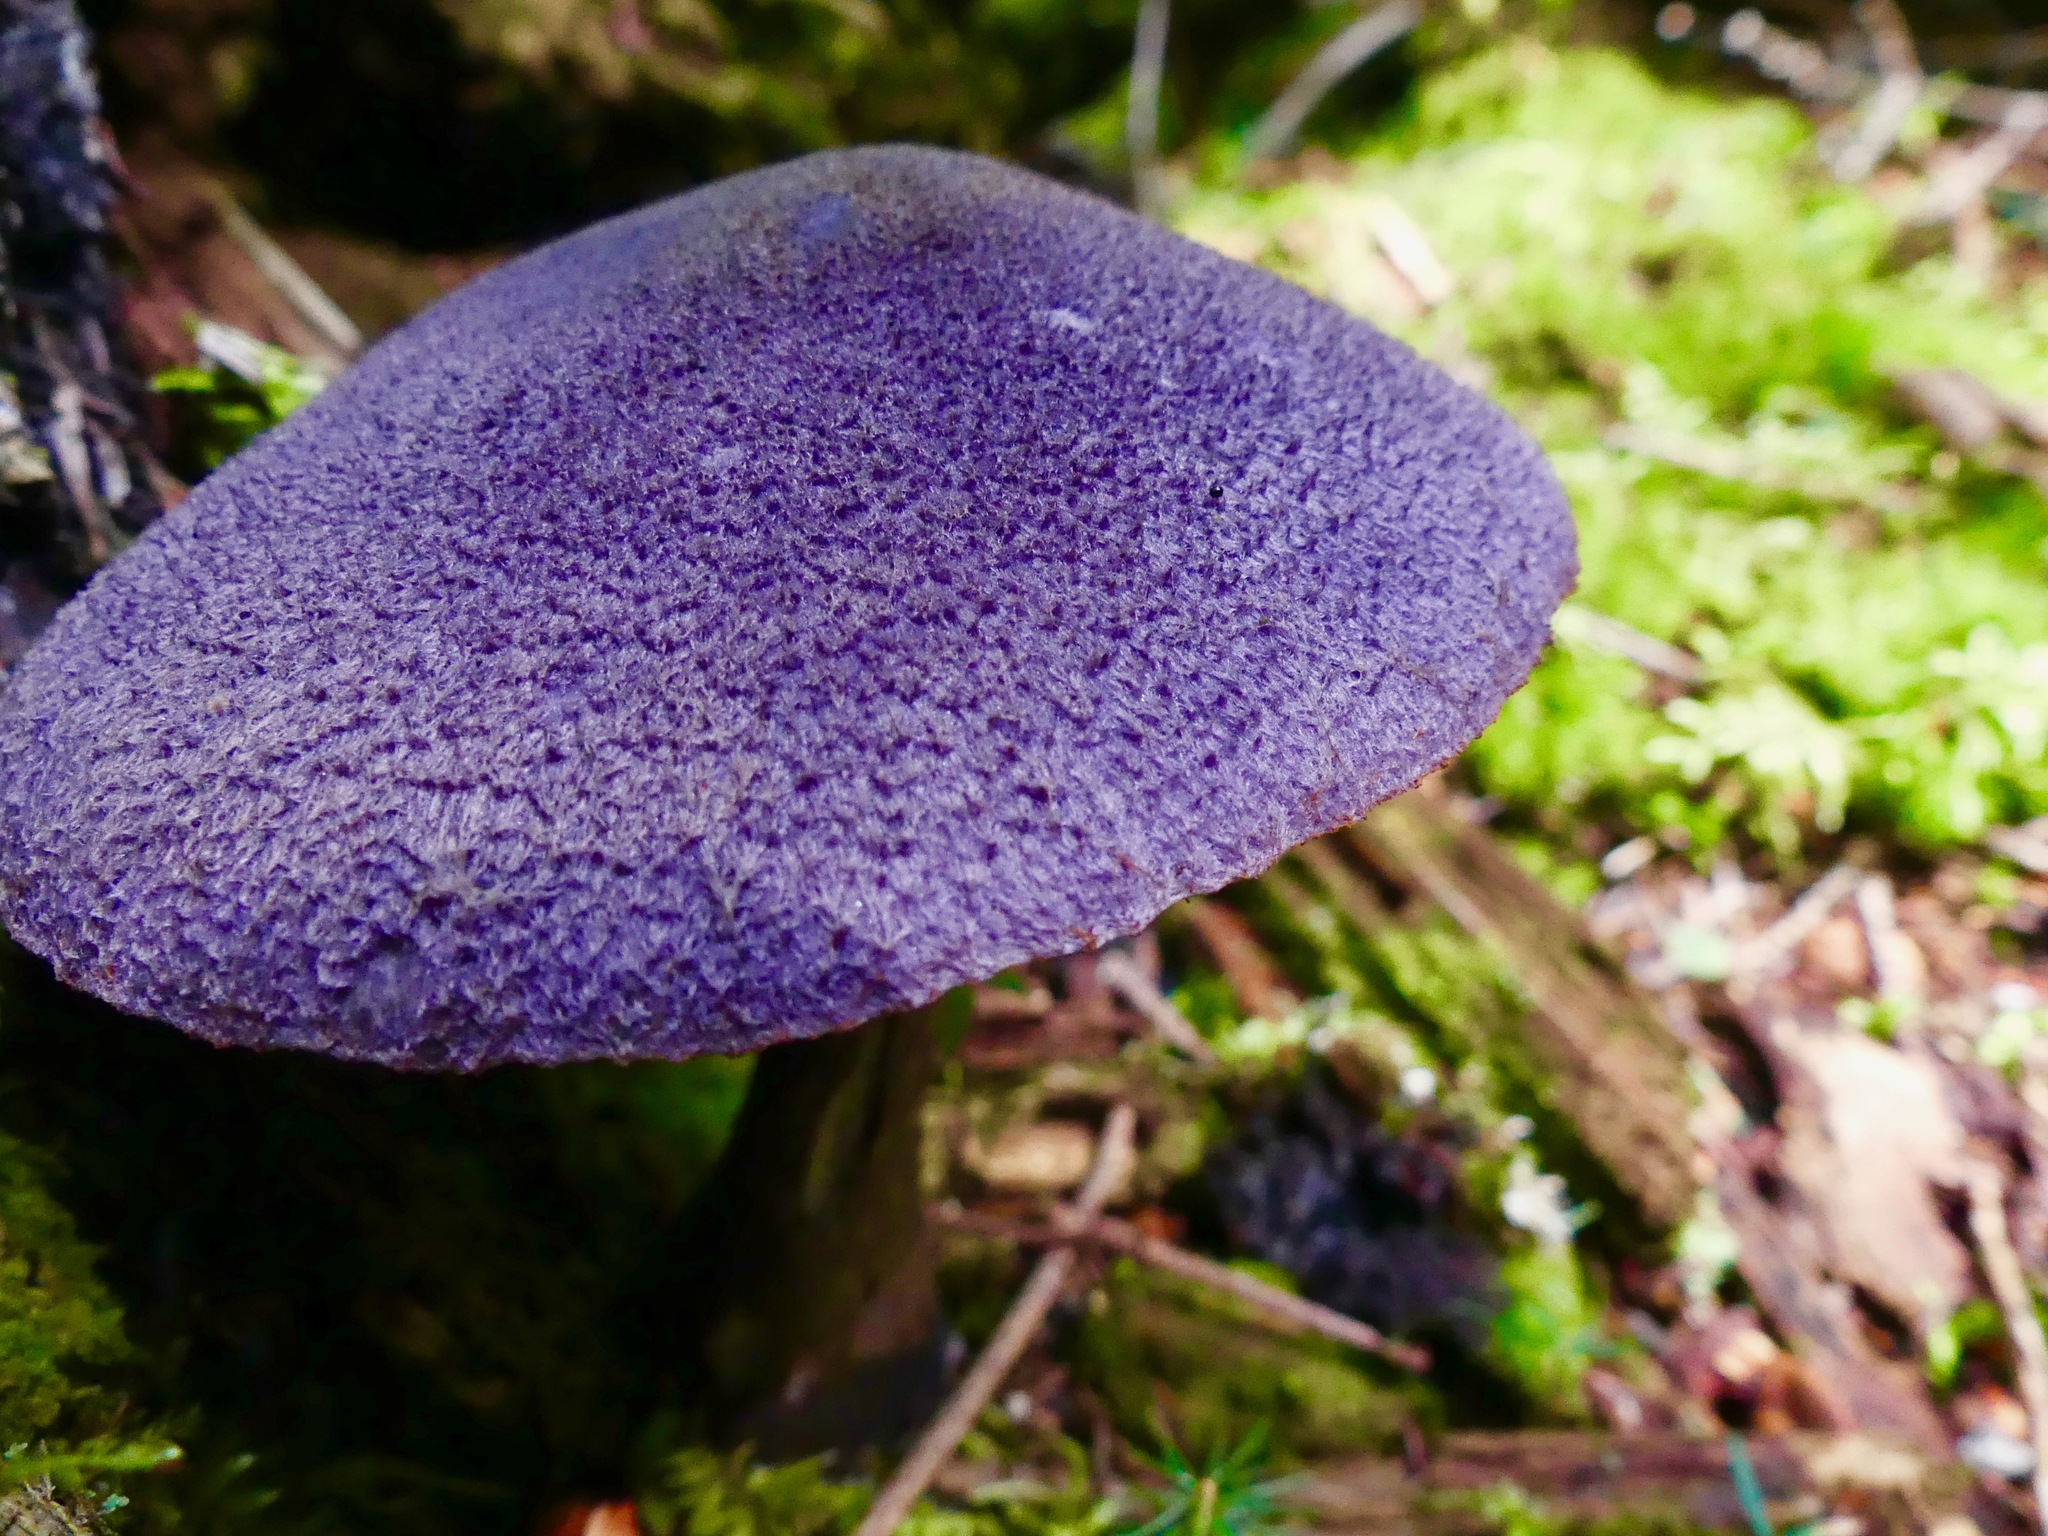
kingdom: Fungi
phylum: Basidiomycota
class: Agaricomycetes
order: Agaricales
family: Cortinariaceae
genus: Cortinarius
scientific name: Cortinarius violaceus
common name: Violet webcap
